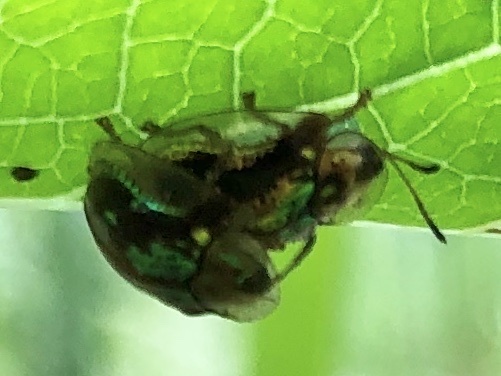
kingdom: Animalia
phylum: Arthropoda
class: Insecta
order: Coleoptera
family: Chrysomelidae
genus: Deloyala
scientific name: Deloyala guttata
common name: Mottled tortoise beetle
